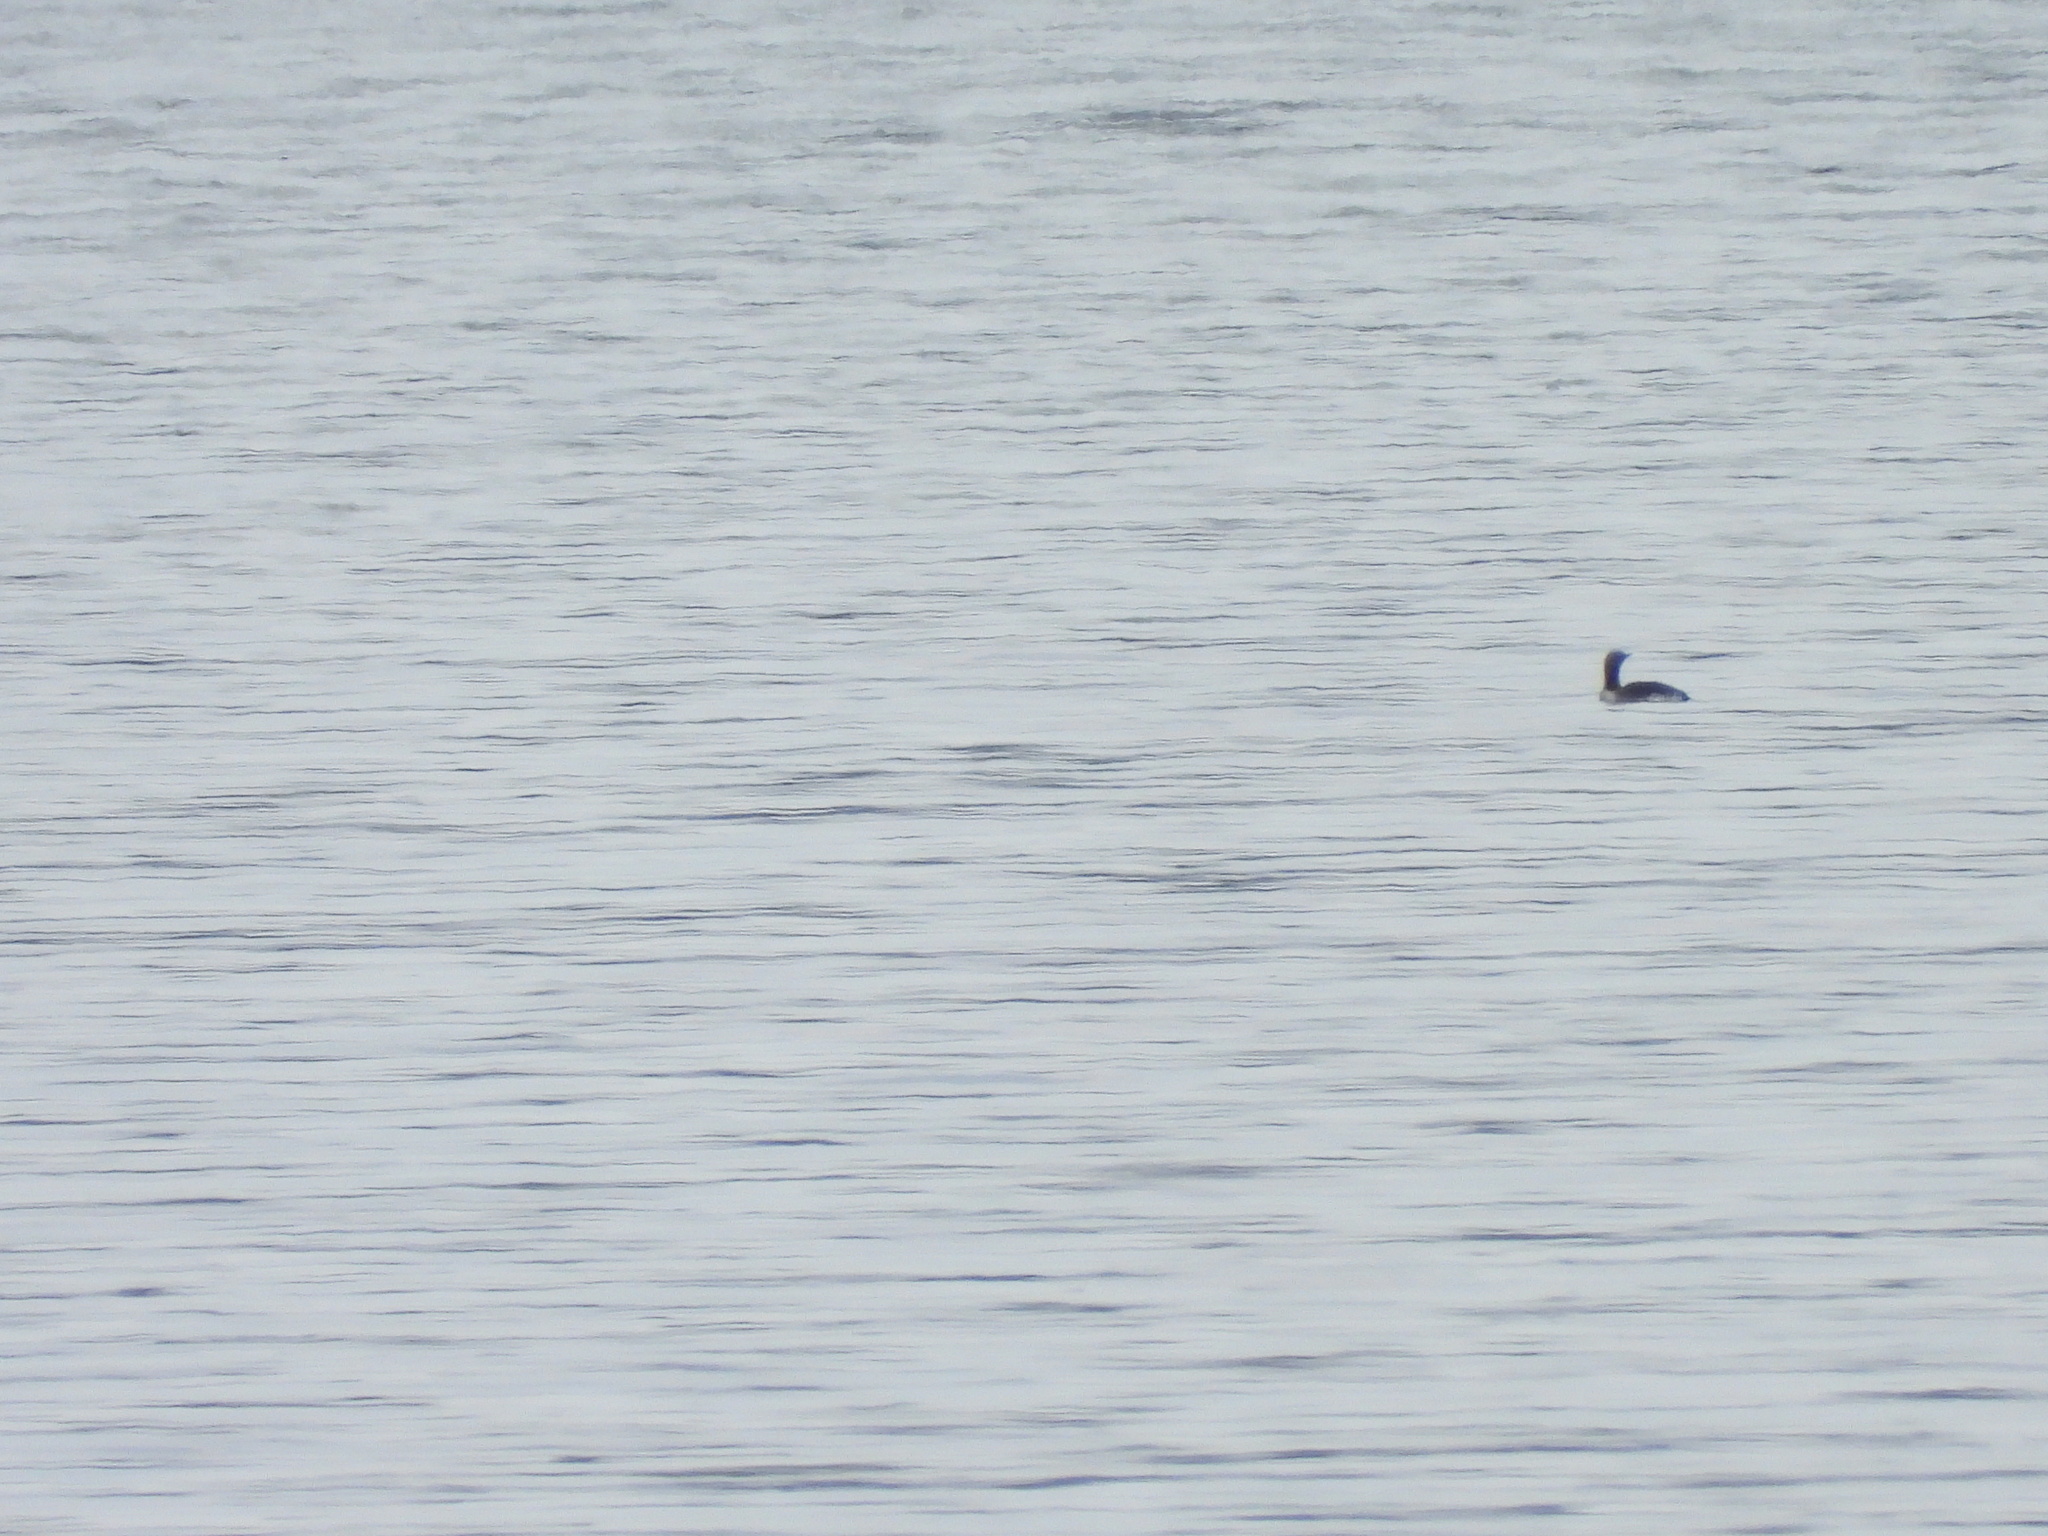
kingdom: Animalia
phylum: Chordata
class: Aves
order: Gaviiformes
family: Gaviidae
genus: Gavia
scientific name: Gavia stellata
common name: Red-throated loon
